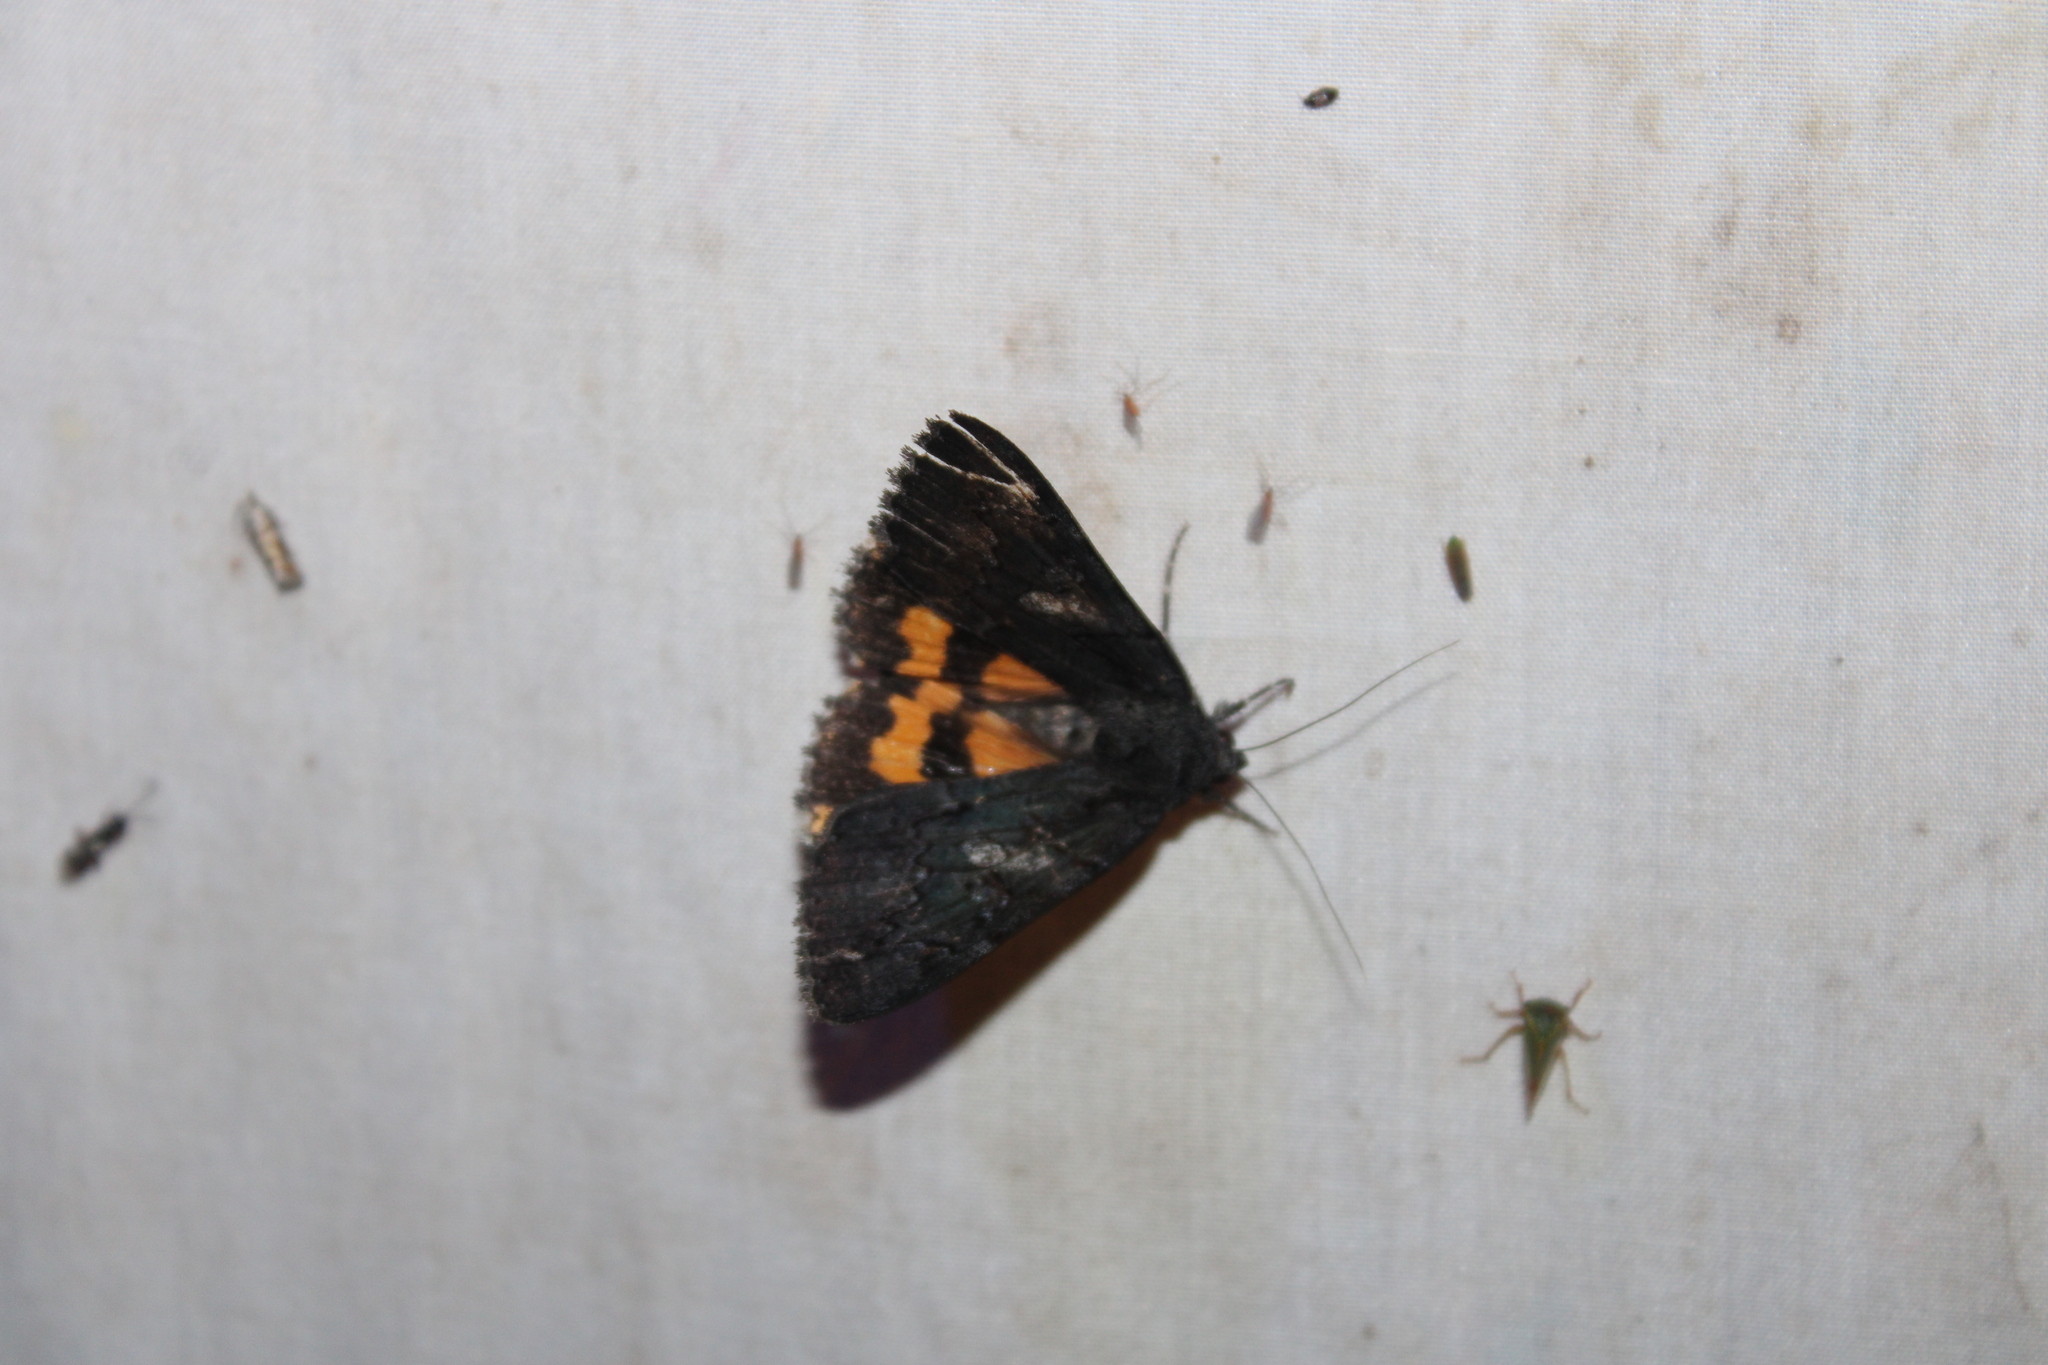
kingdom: Animalia
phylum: Arthropoda
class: Insecta
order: Lepidoptera
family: Erebidae
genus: Catocala
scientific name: Catocala antinympha
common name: Sweetfern underwing
